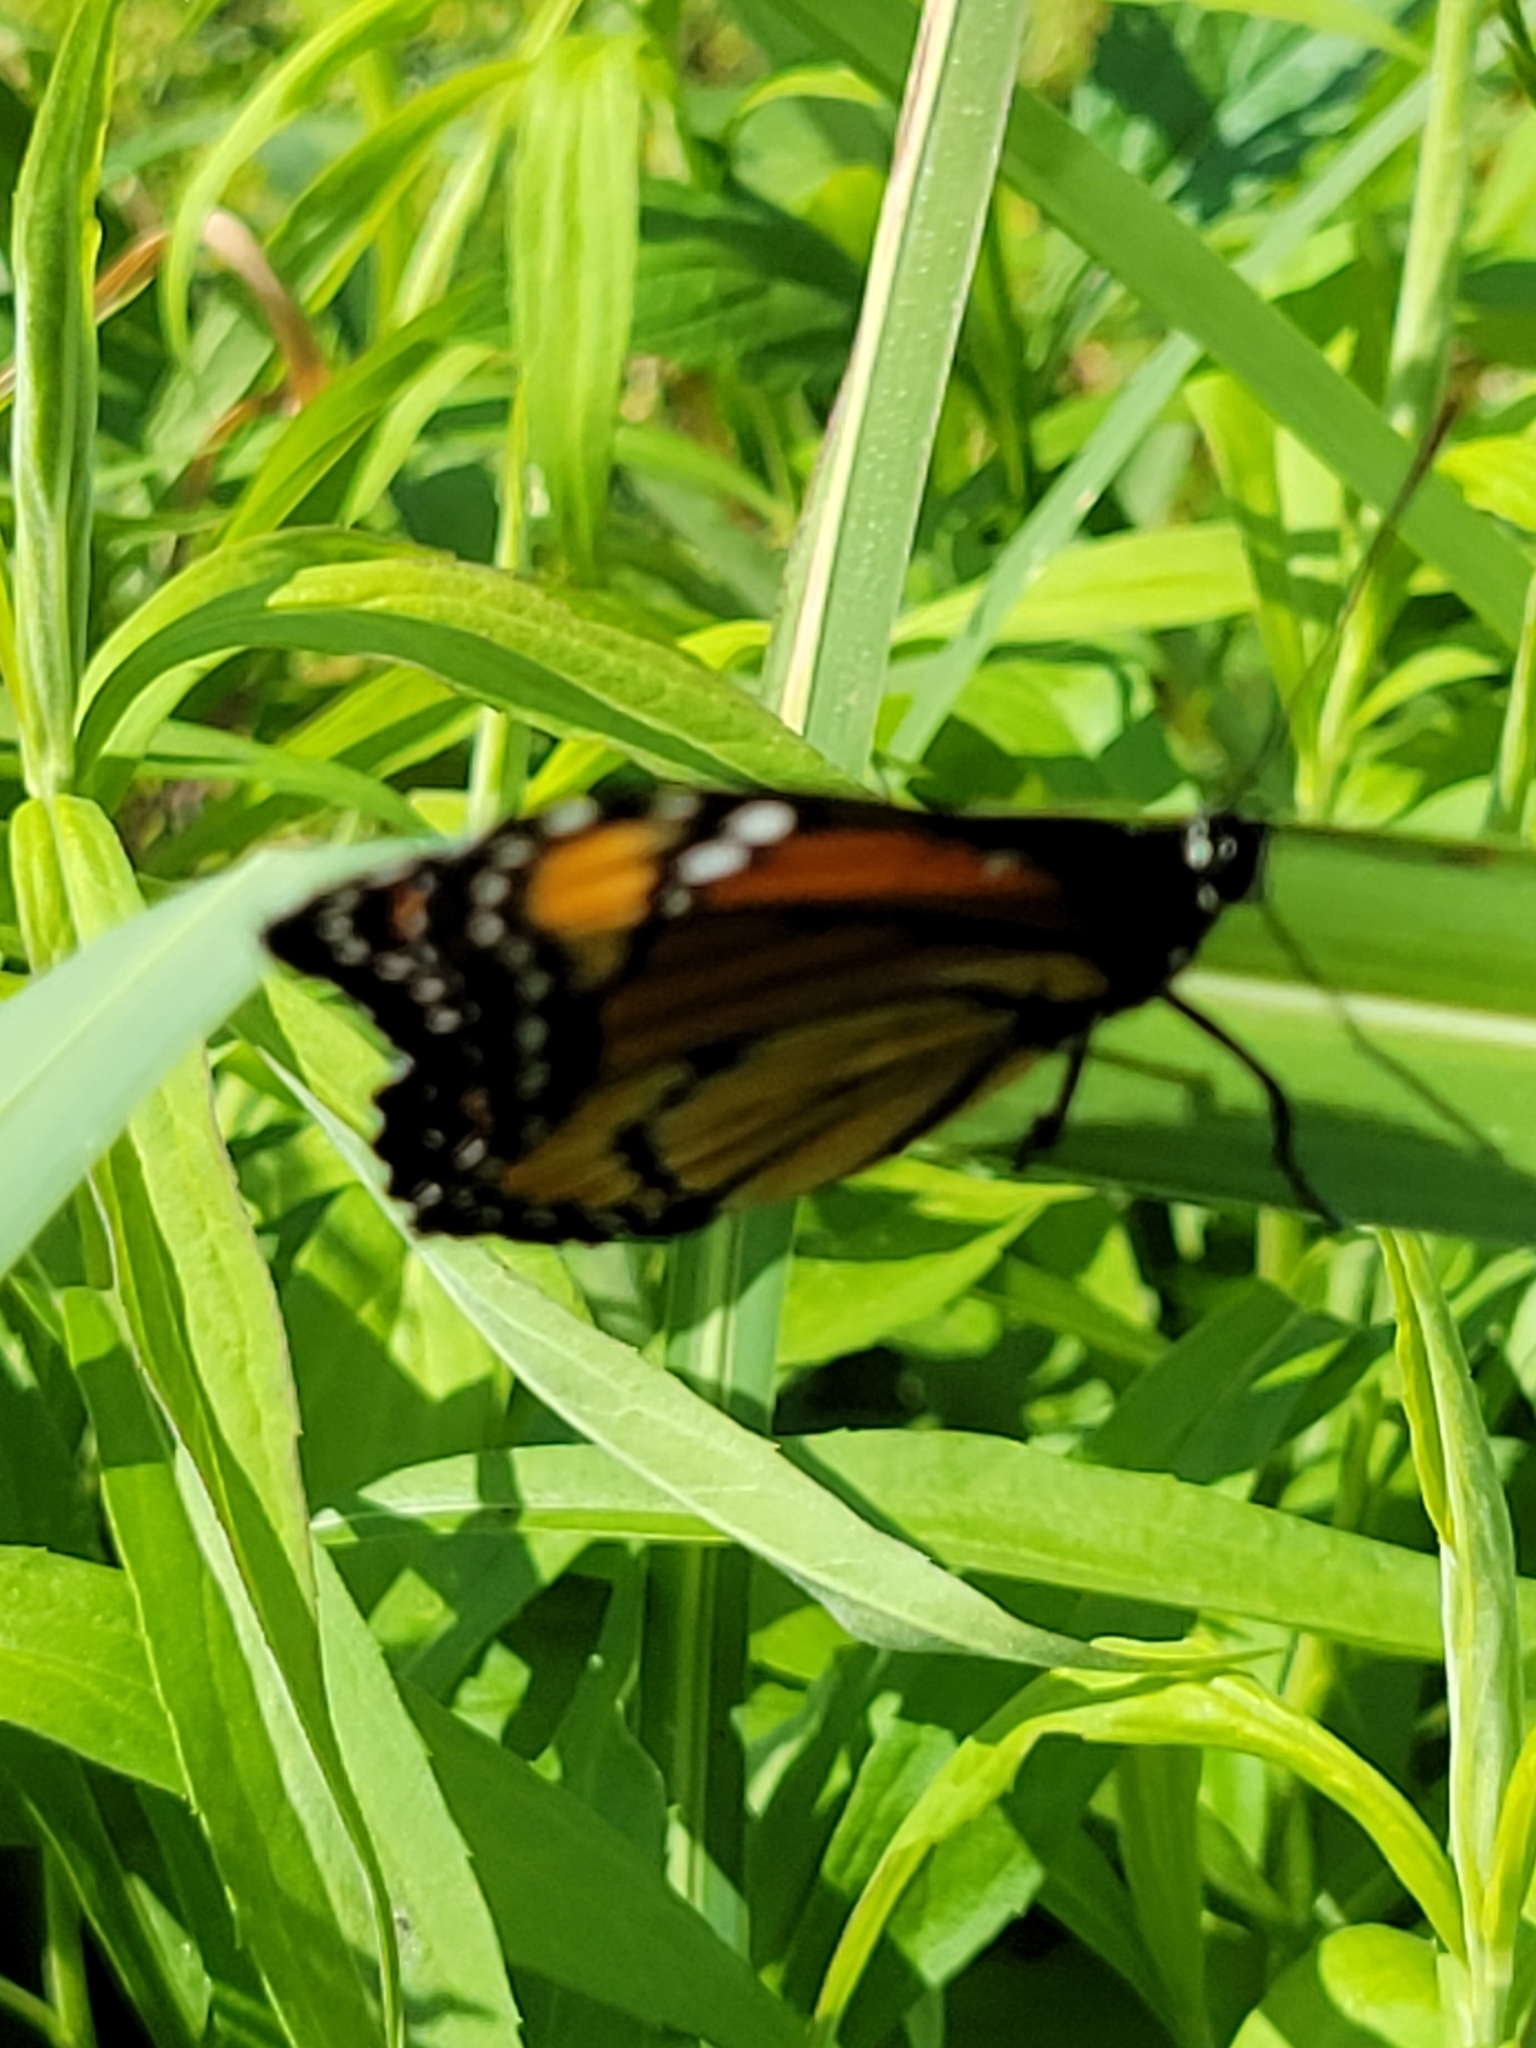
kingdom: Animalia
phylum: Arthropoda
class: Insecta
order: Lepidoptera
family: Nymphalidae
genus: Limenitis
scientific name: Limenitis archippus
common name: Viceroy
